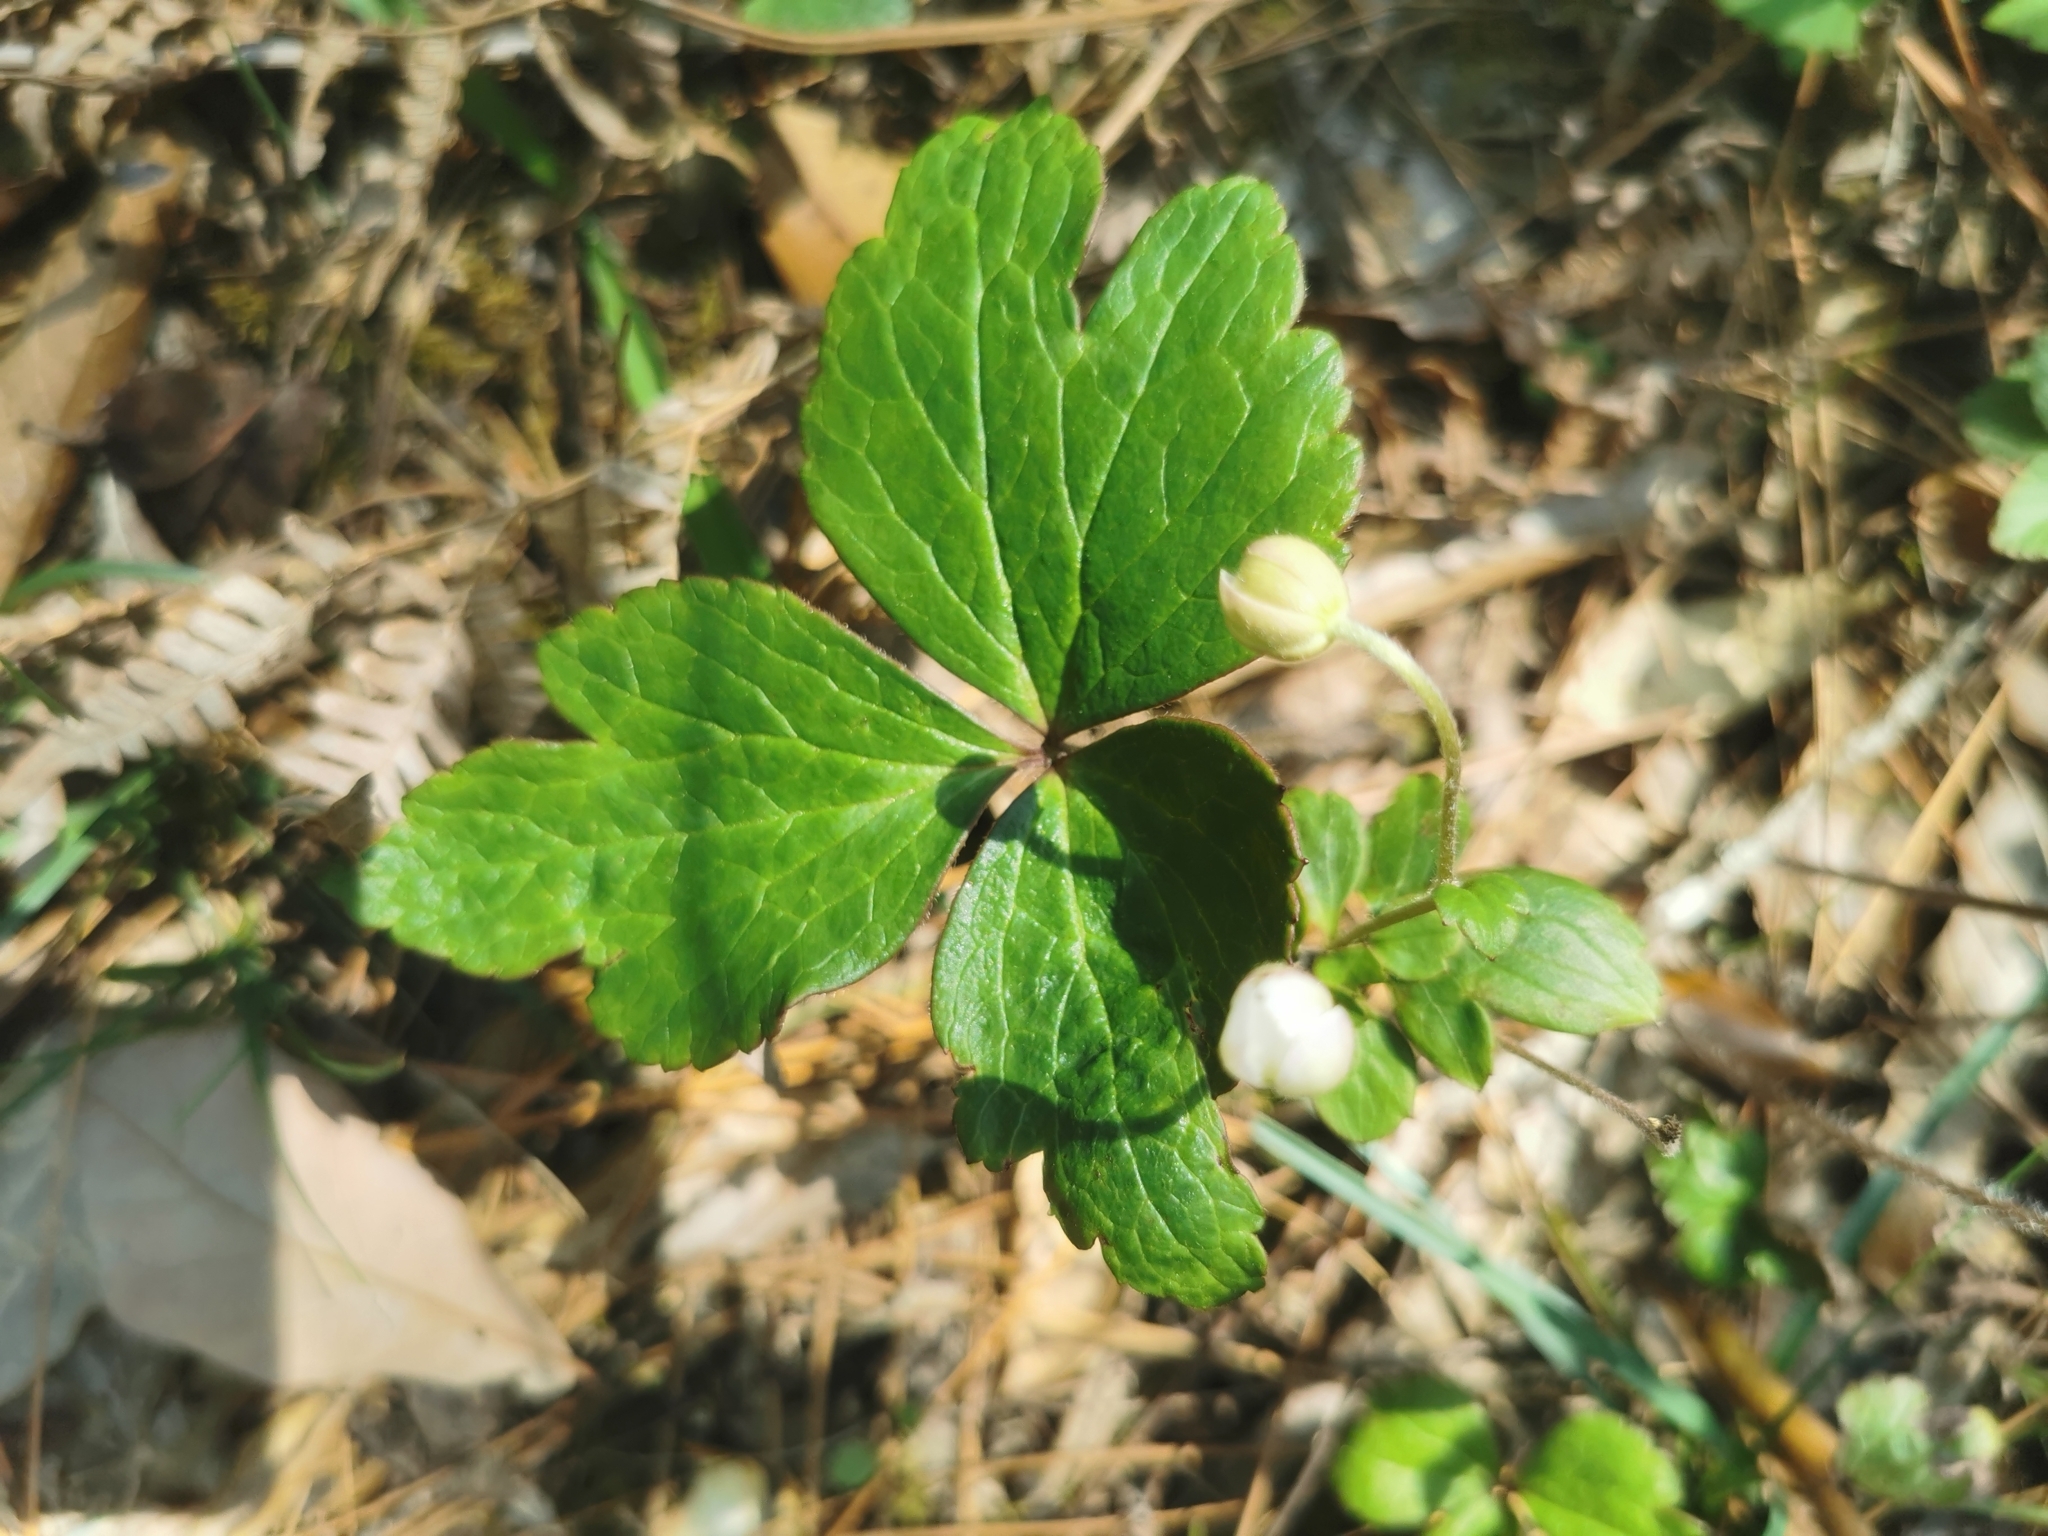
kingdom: Plantae
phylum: Tracheophyta
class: Magnoliopsida
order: Ranunculales
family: Ranunculaceae
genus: Knowltonia
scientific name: Knowltonia mexicana
